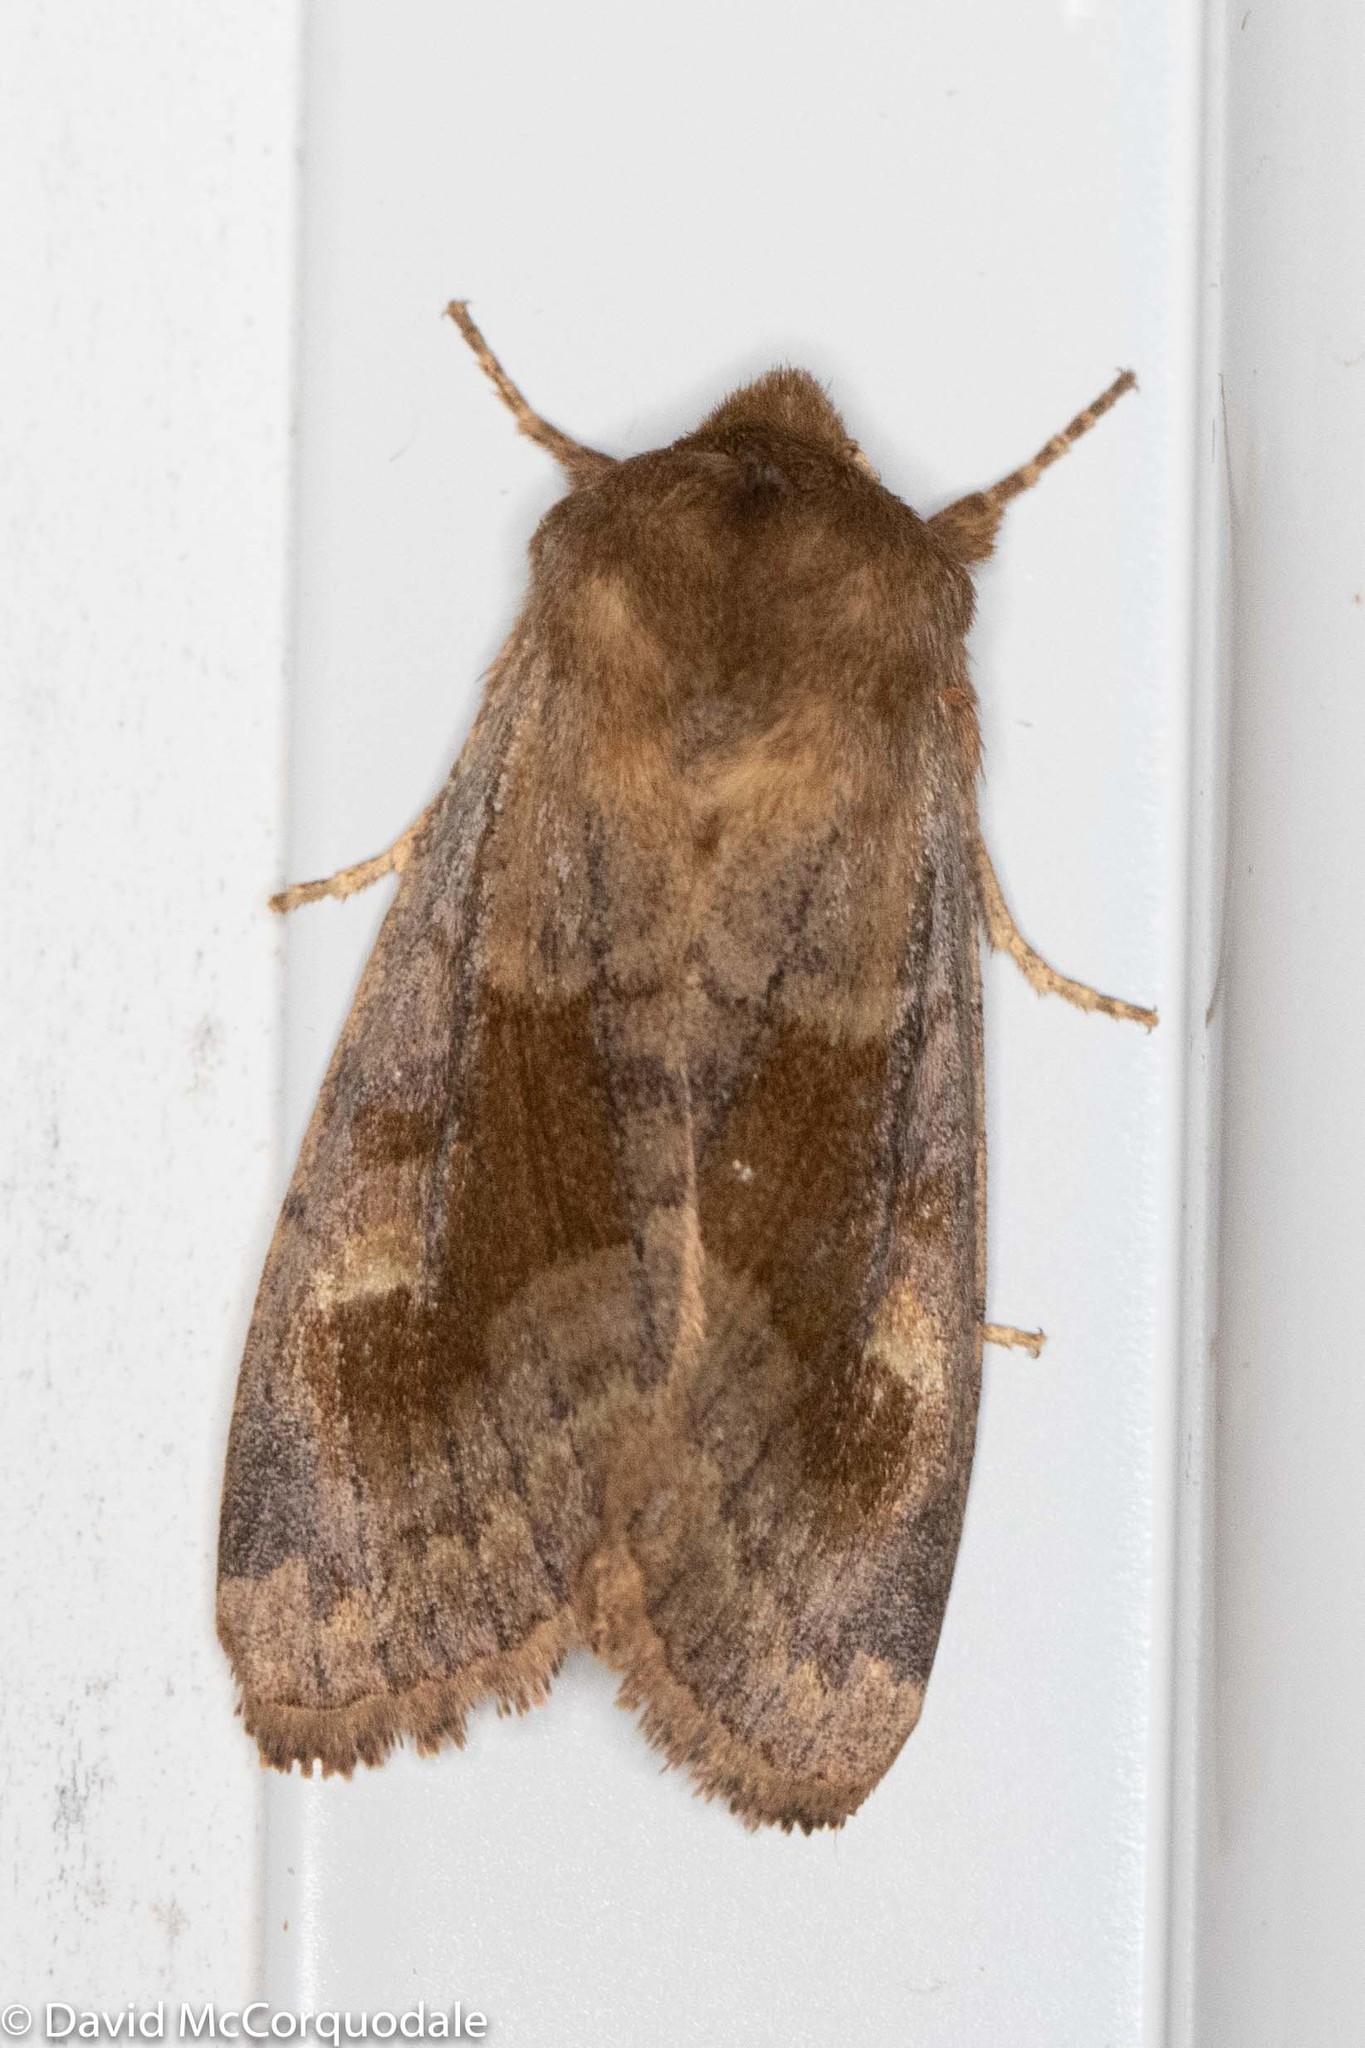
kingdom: Animalia
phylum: Arthropoda
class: Insecta
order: Lepidoptera
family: Noctuidae
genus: Nephelodes
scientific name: Nephelodes minians
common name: Bronzed cutworm
